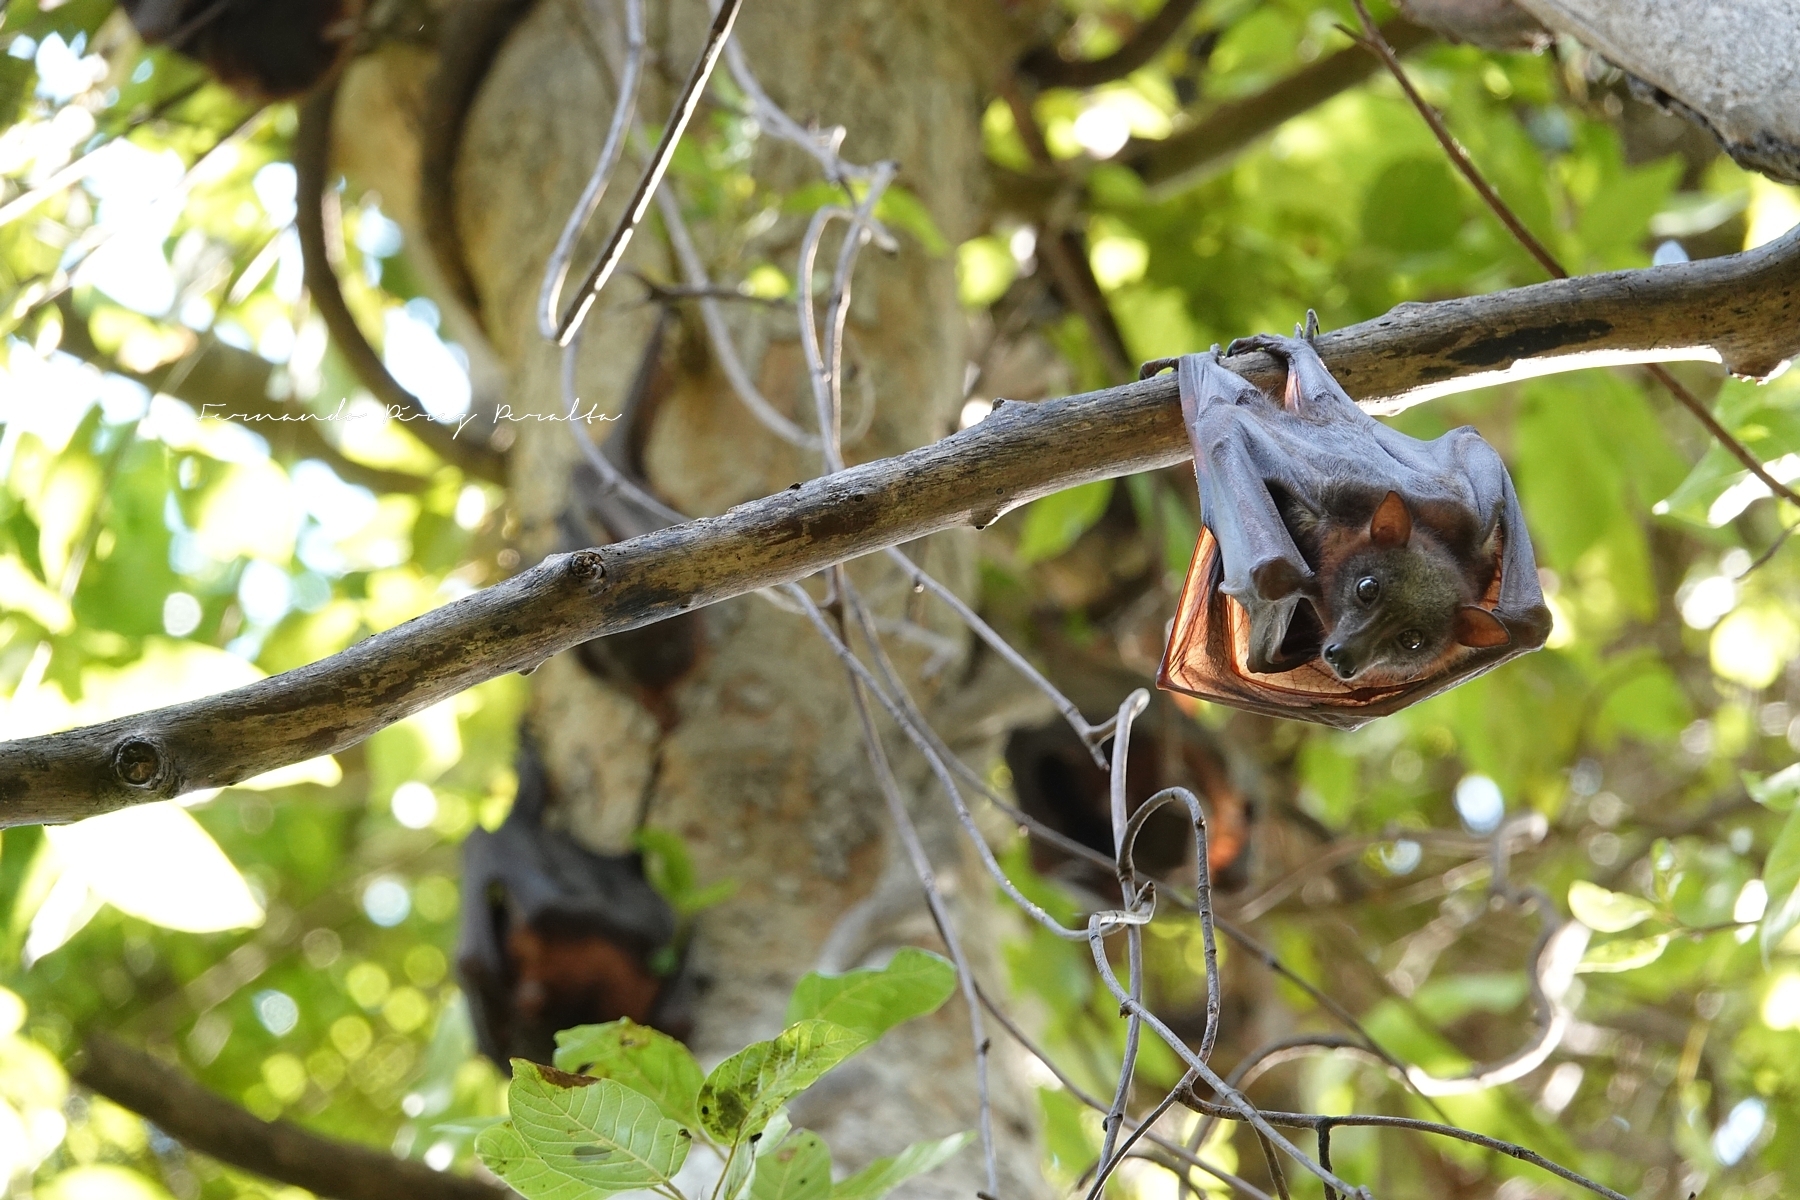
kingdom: Animalia
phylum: Chordata
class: Mammalia
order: Chiroptera
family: Pteropodidae
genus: Pteropus
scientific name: Pteropus scapulatus
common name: Little red flying fox
